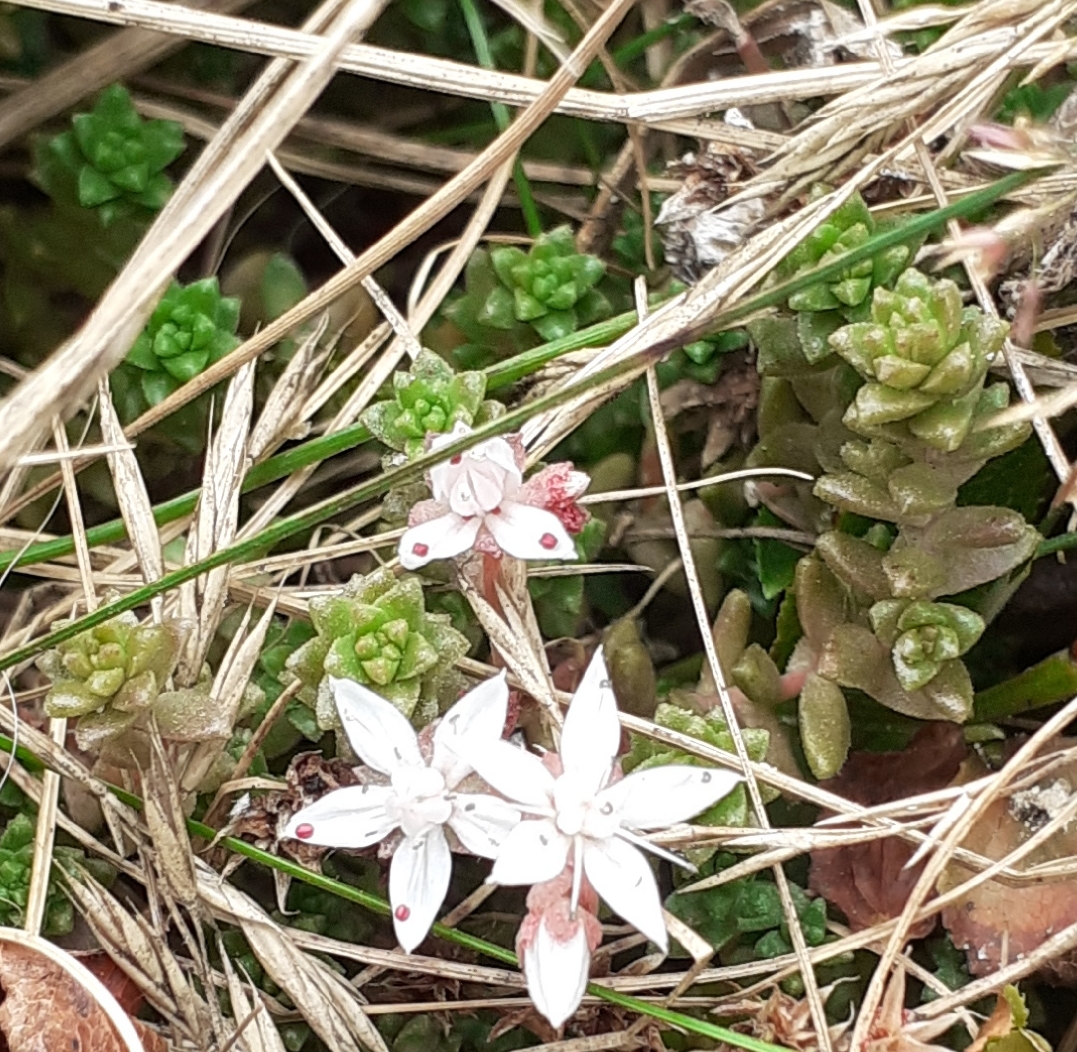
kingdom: Plantae
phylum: Tracheophyta
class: Magnoliopsida
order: Saxifragales
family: Crassulaceae
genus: Sedum
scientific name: Sedum anglicum
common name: English stonecrop
